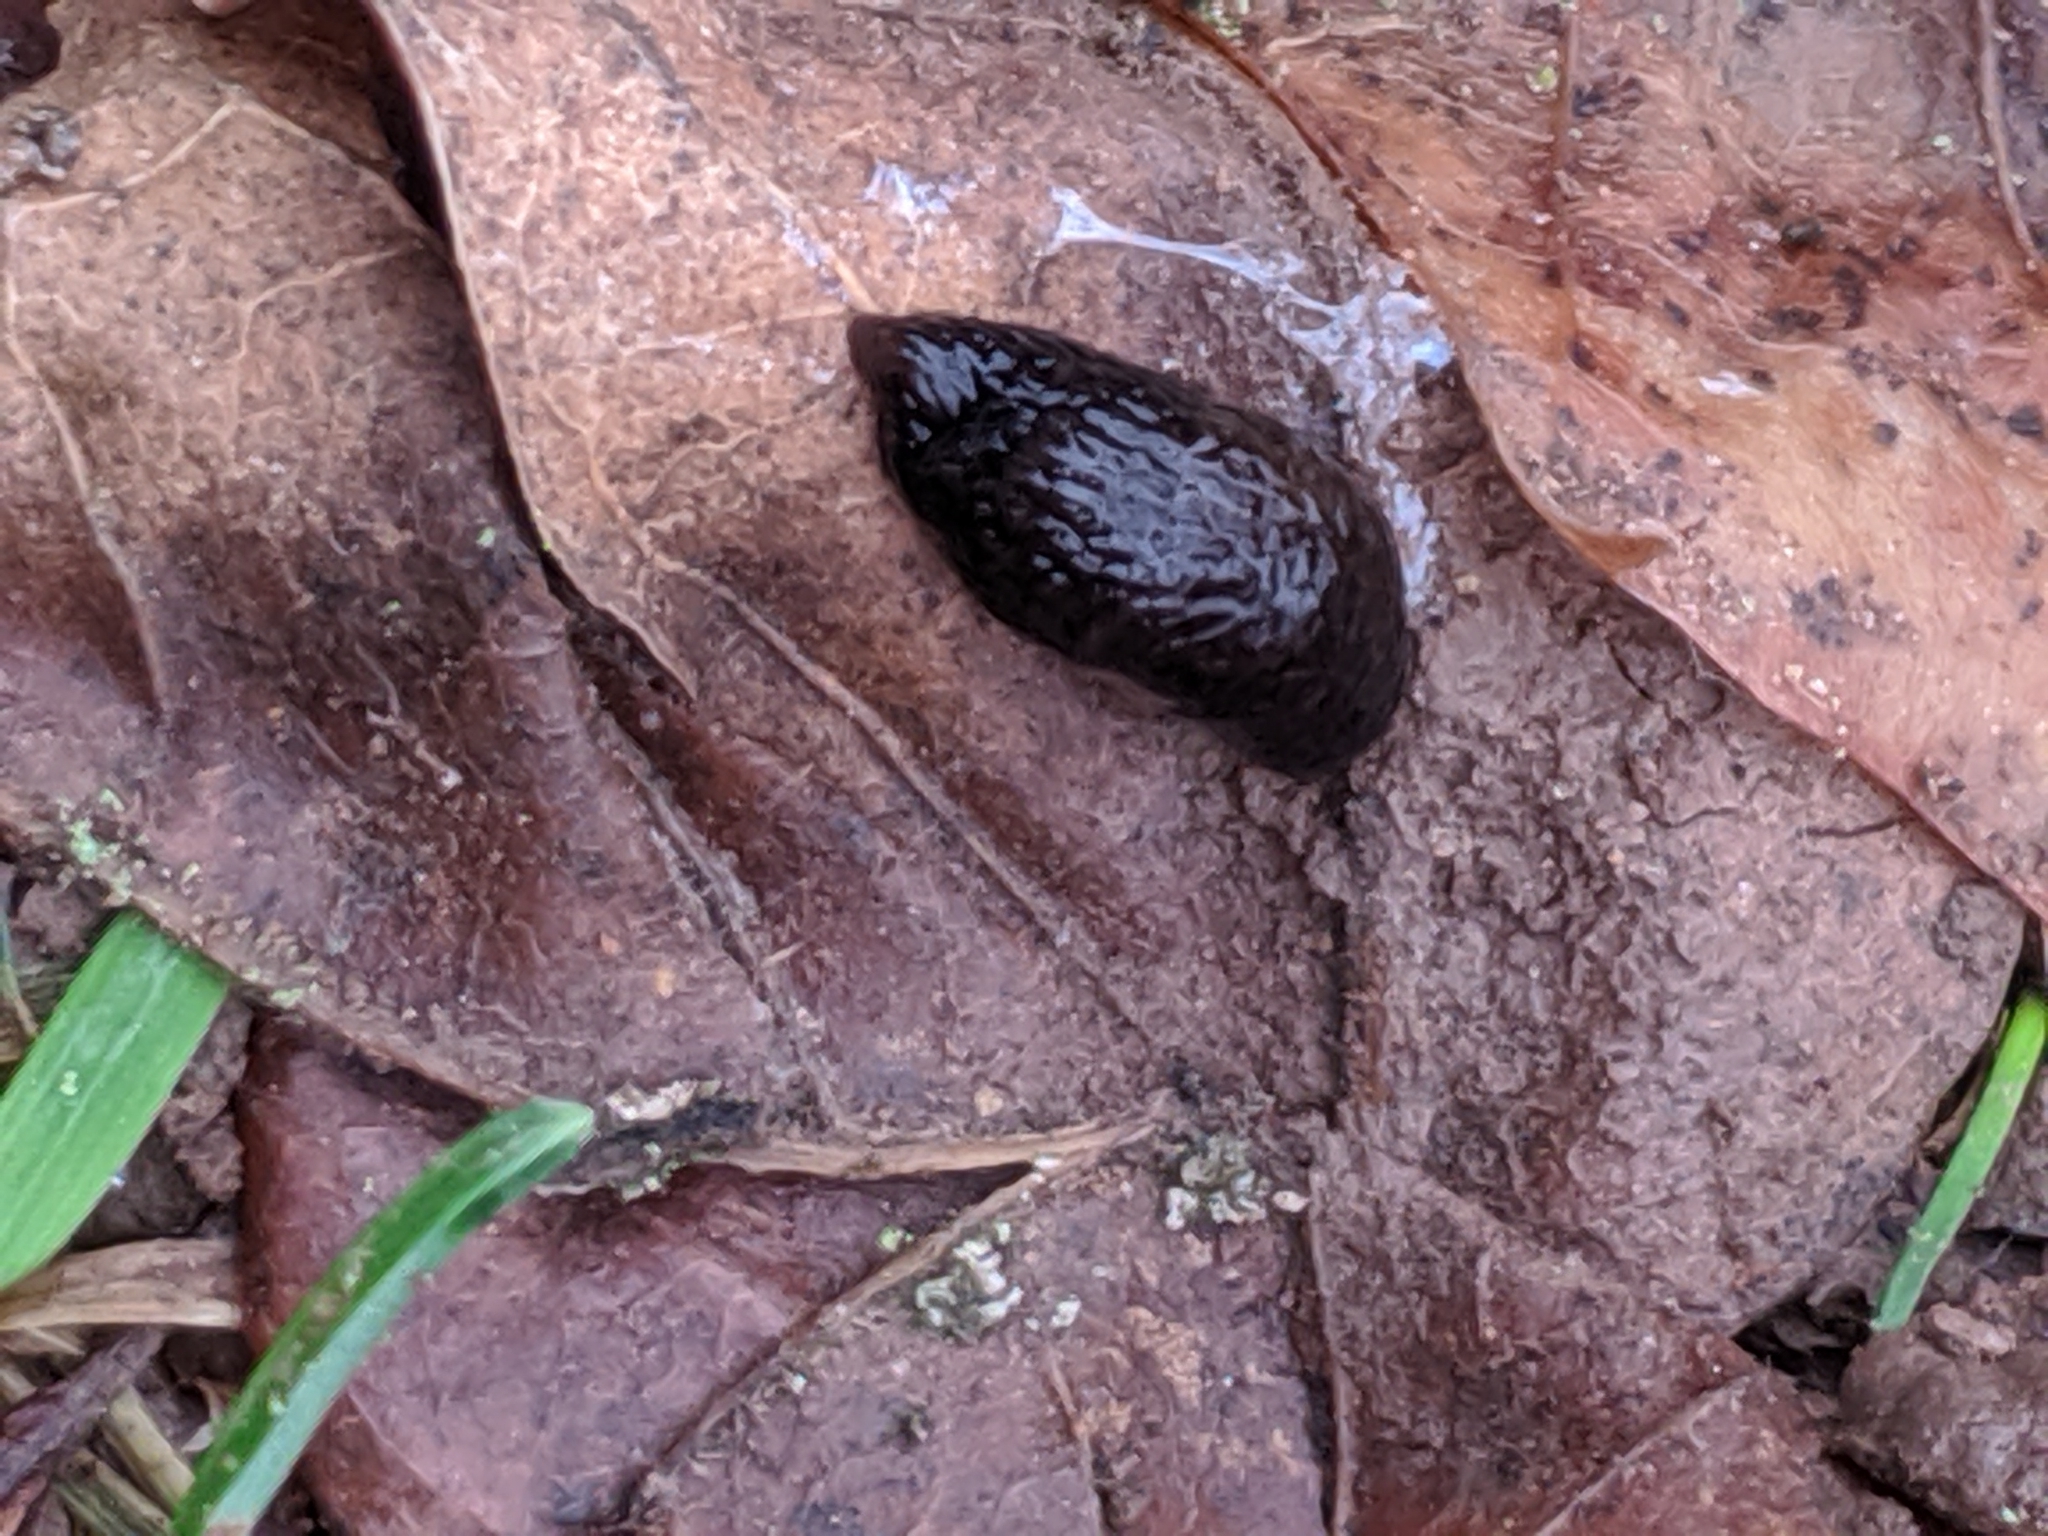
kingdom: Animalia
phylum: Mollusca
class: Gastropoda
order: Stylommatophora
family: Agriolimacidae
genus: Deroceras
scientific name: Deroceras
